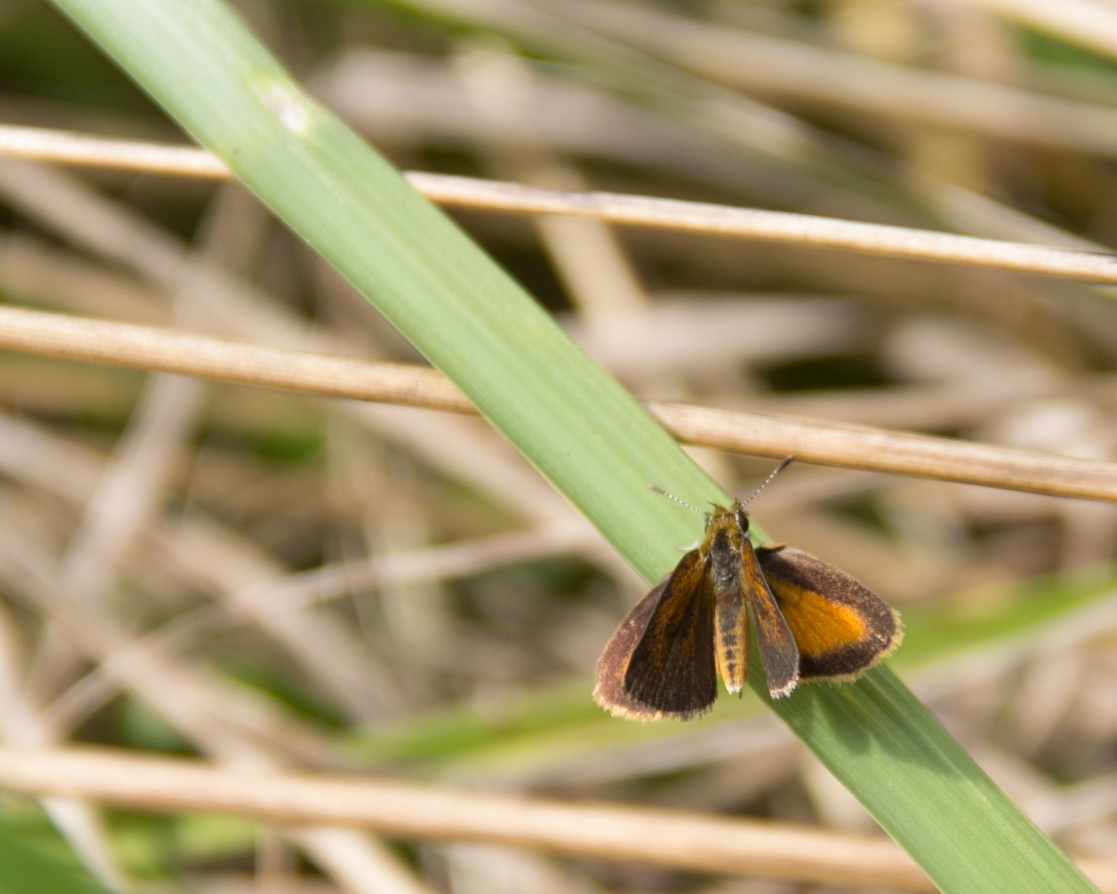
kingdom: Animalia
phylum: Arthropoda
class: Insecta
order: Lepidoptera
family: Hesperiidae
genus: Ancyloxypha
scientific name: Ancyloxypha numitor
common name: Least skipper
